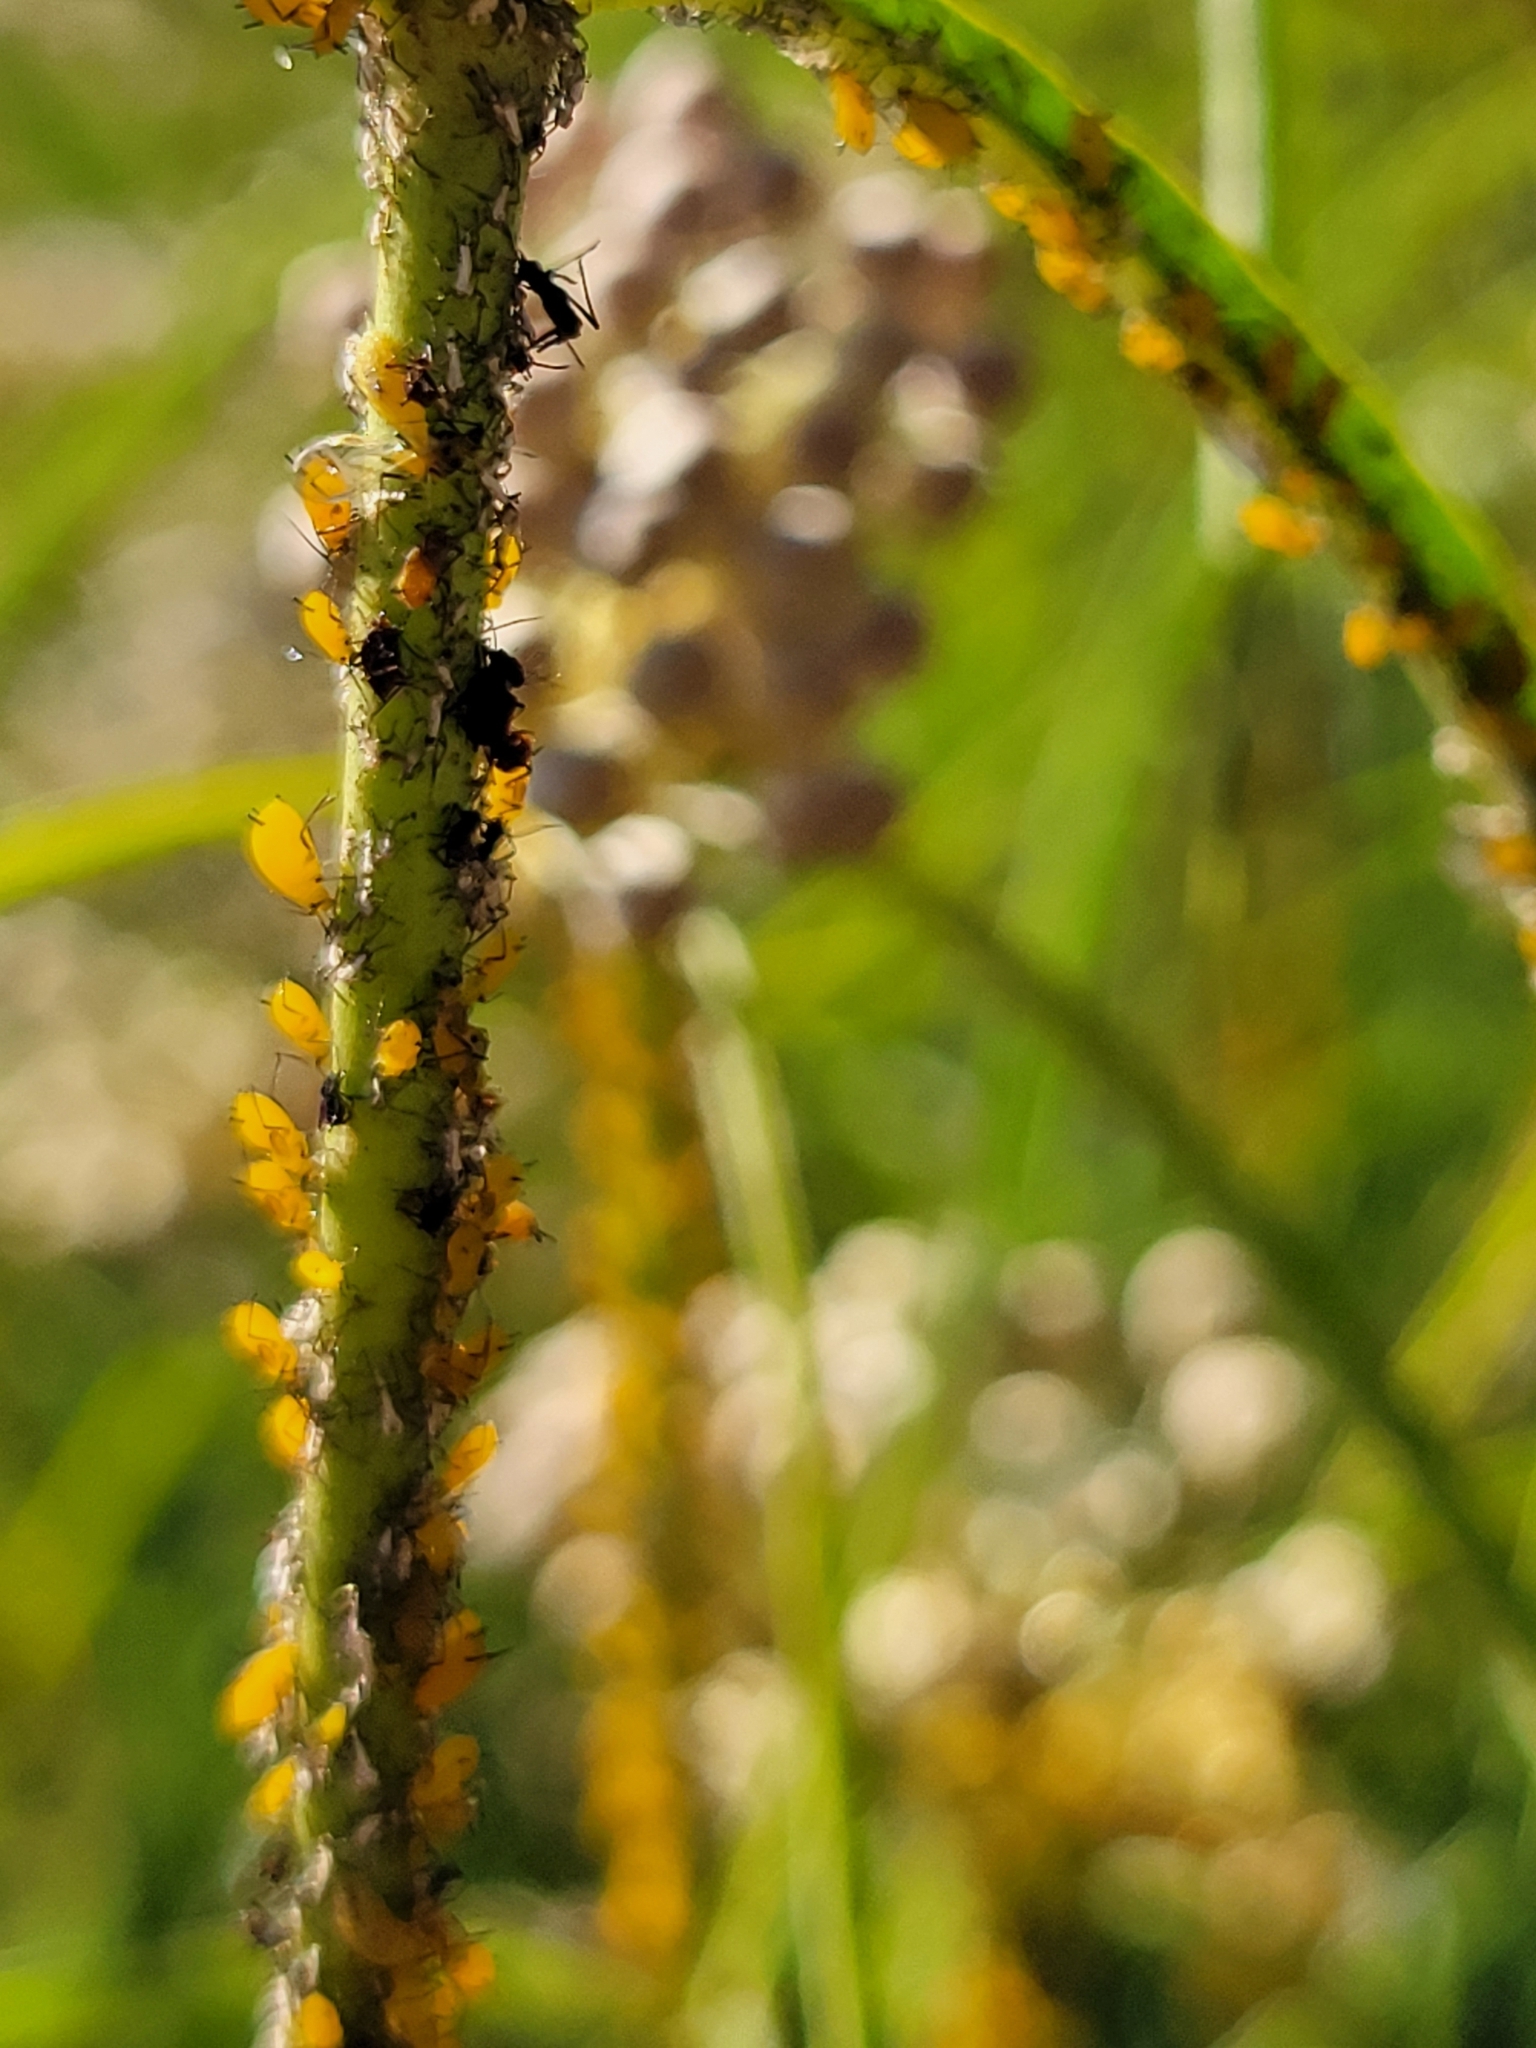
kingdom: Animalia
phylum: Arthropoda
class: Insecta
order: Hemiptera
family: Aphididae
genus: Aphis
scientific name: Aphis nerii
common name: Oleander aphid
